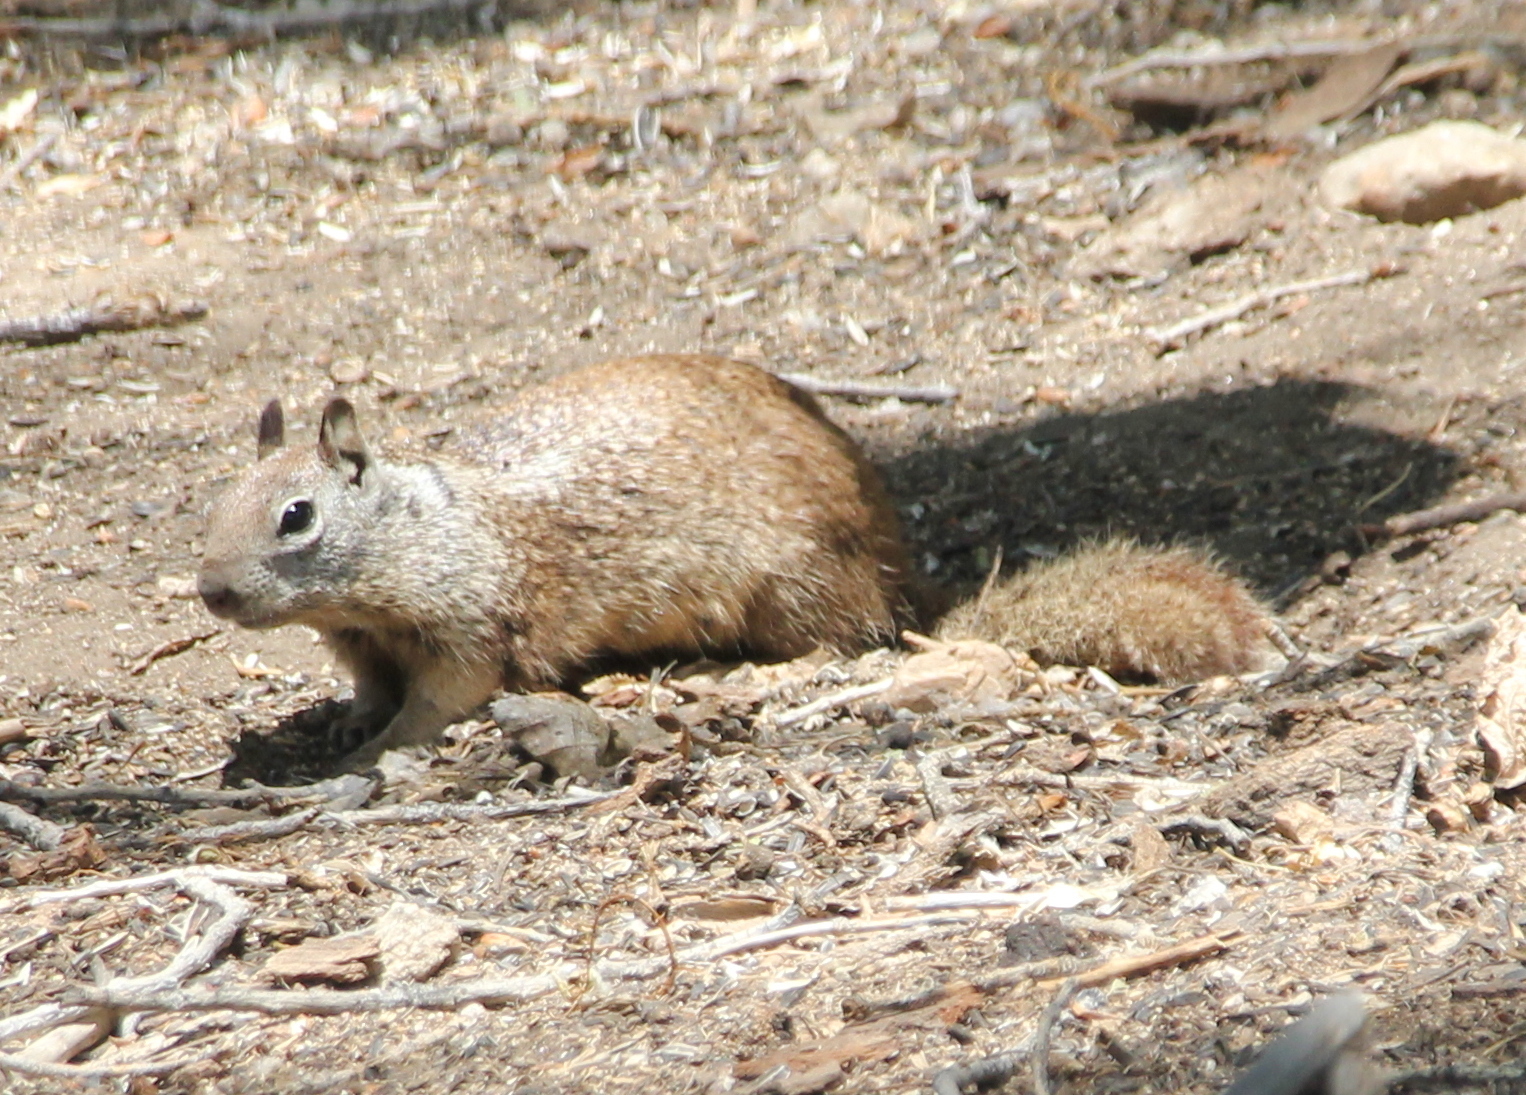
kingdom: Animalia
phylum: Chordata
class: Mammalia
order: Rodentia
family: Sciuridae
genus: Otospermophilus
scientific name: Otospermophilus beecheyi
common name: California ground squirrel
